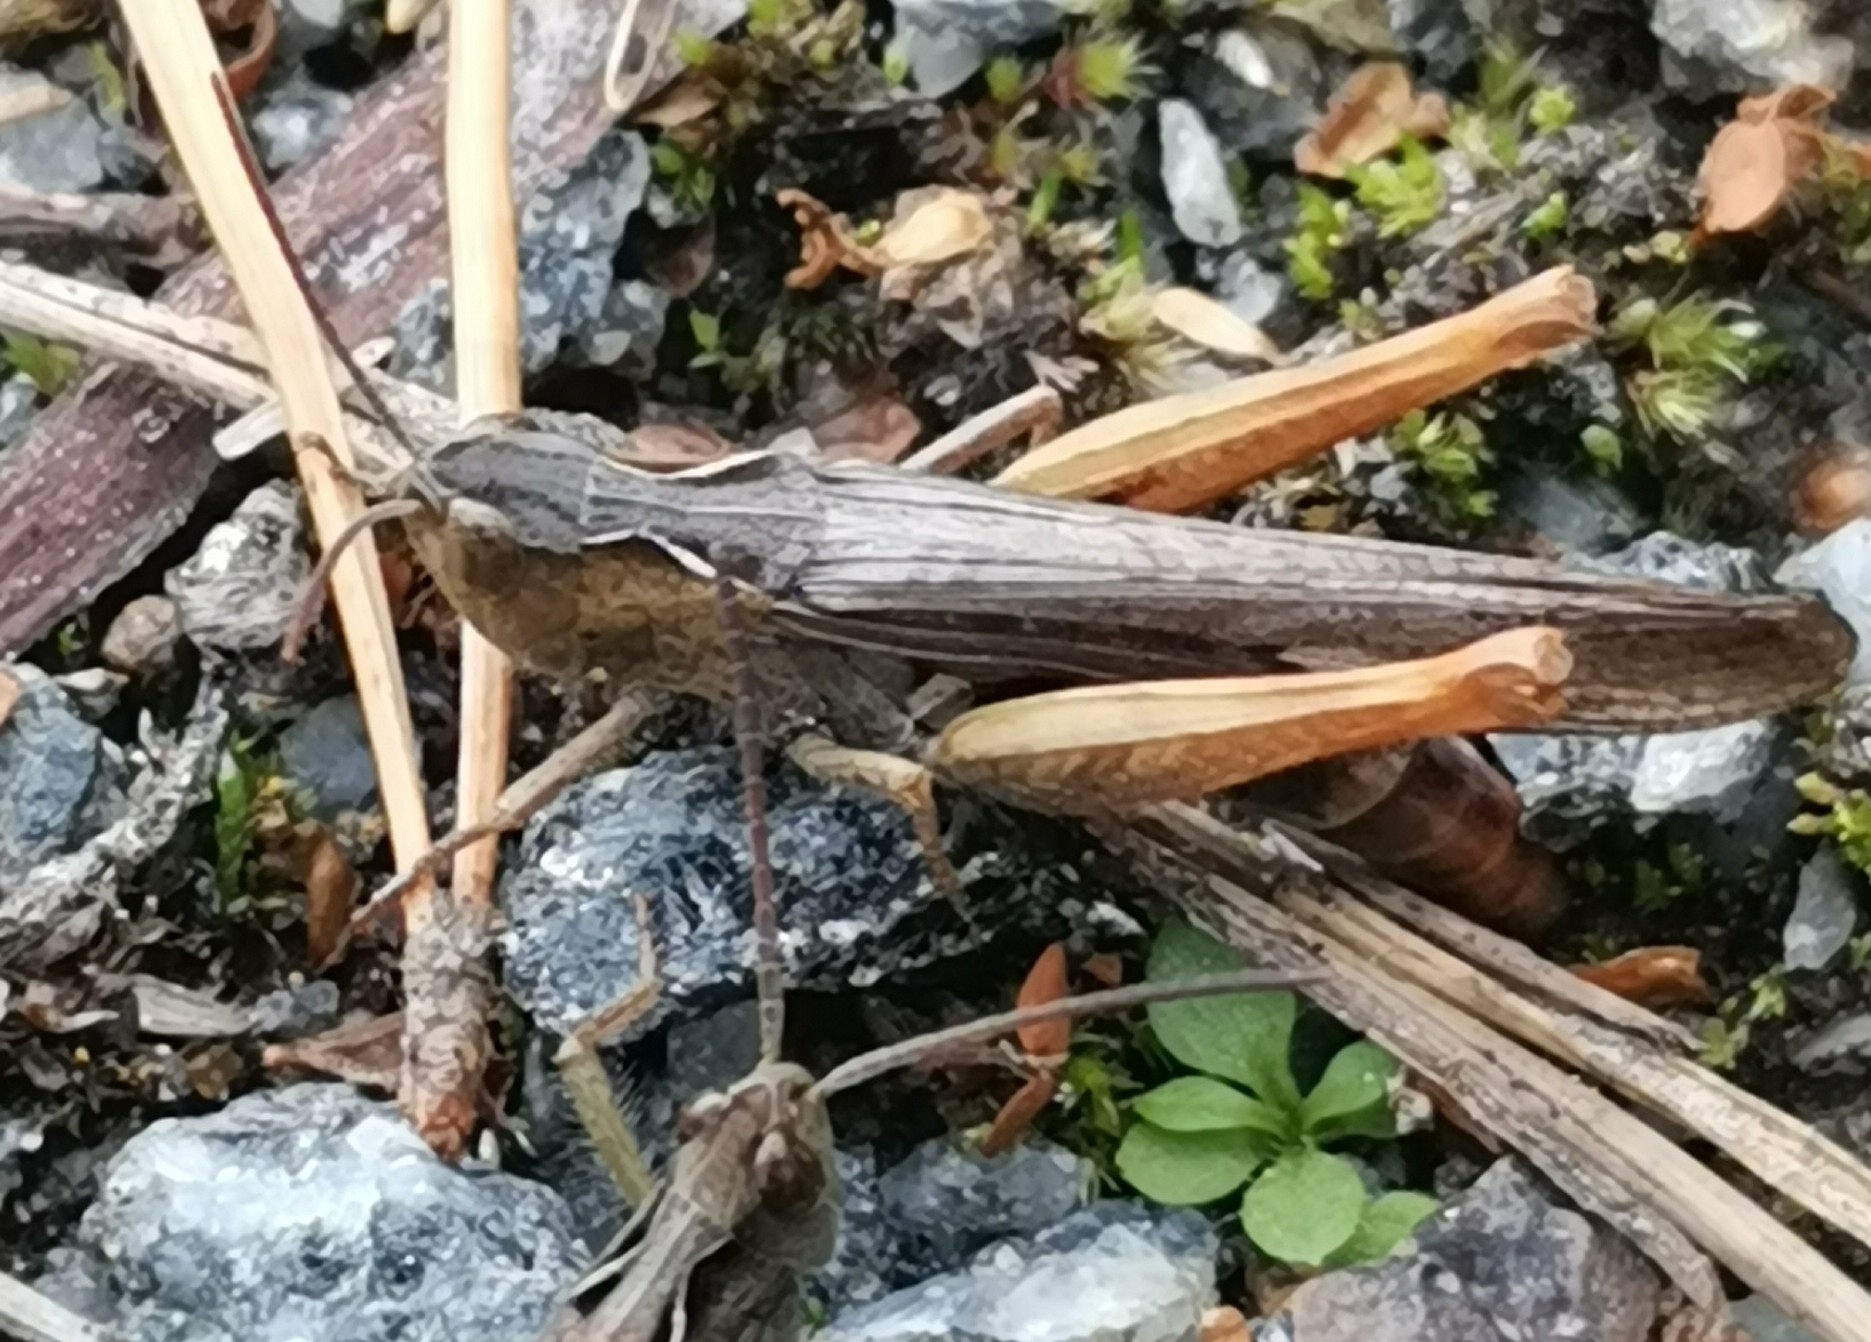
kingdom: Animalia
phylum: Arthropoda
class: Insecta
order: Orthoptera
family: Acrididae
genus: Chorthippus
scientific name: Chorthippus brunneus
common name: Field grasshopper
